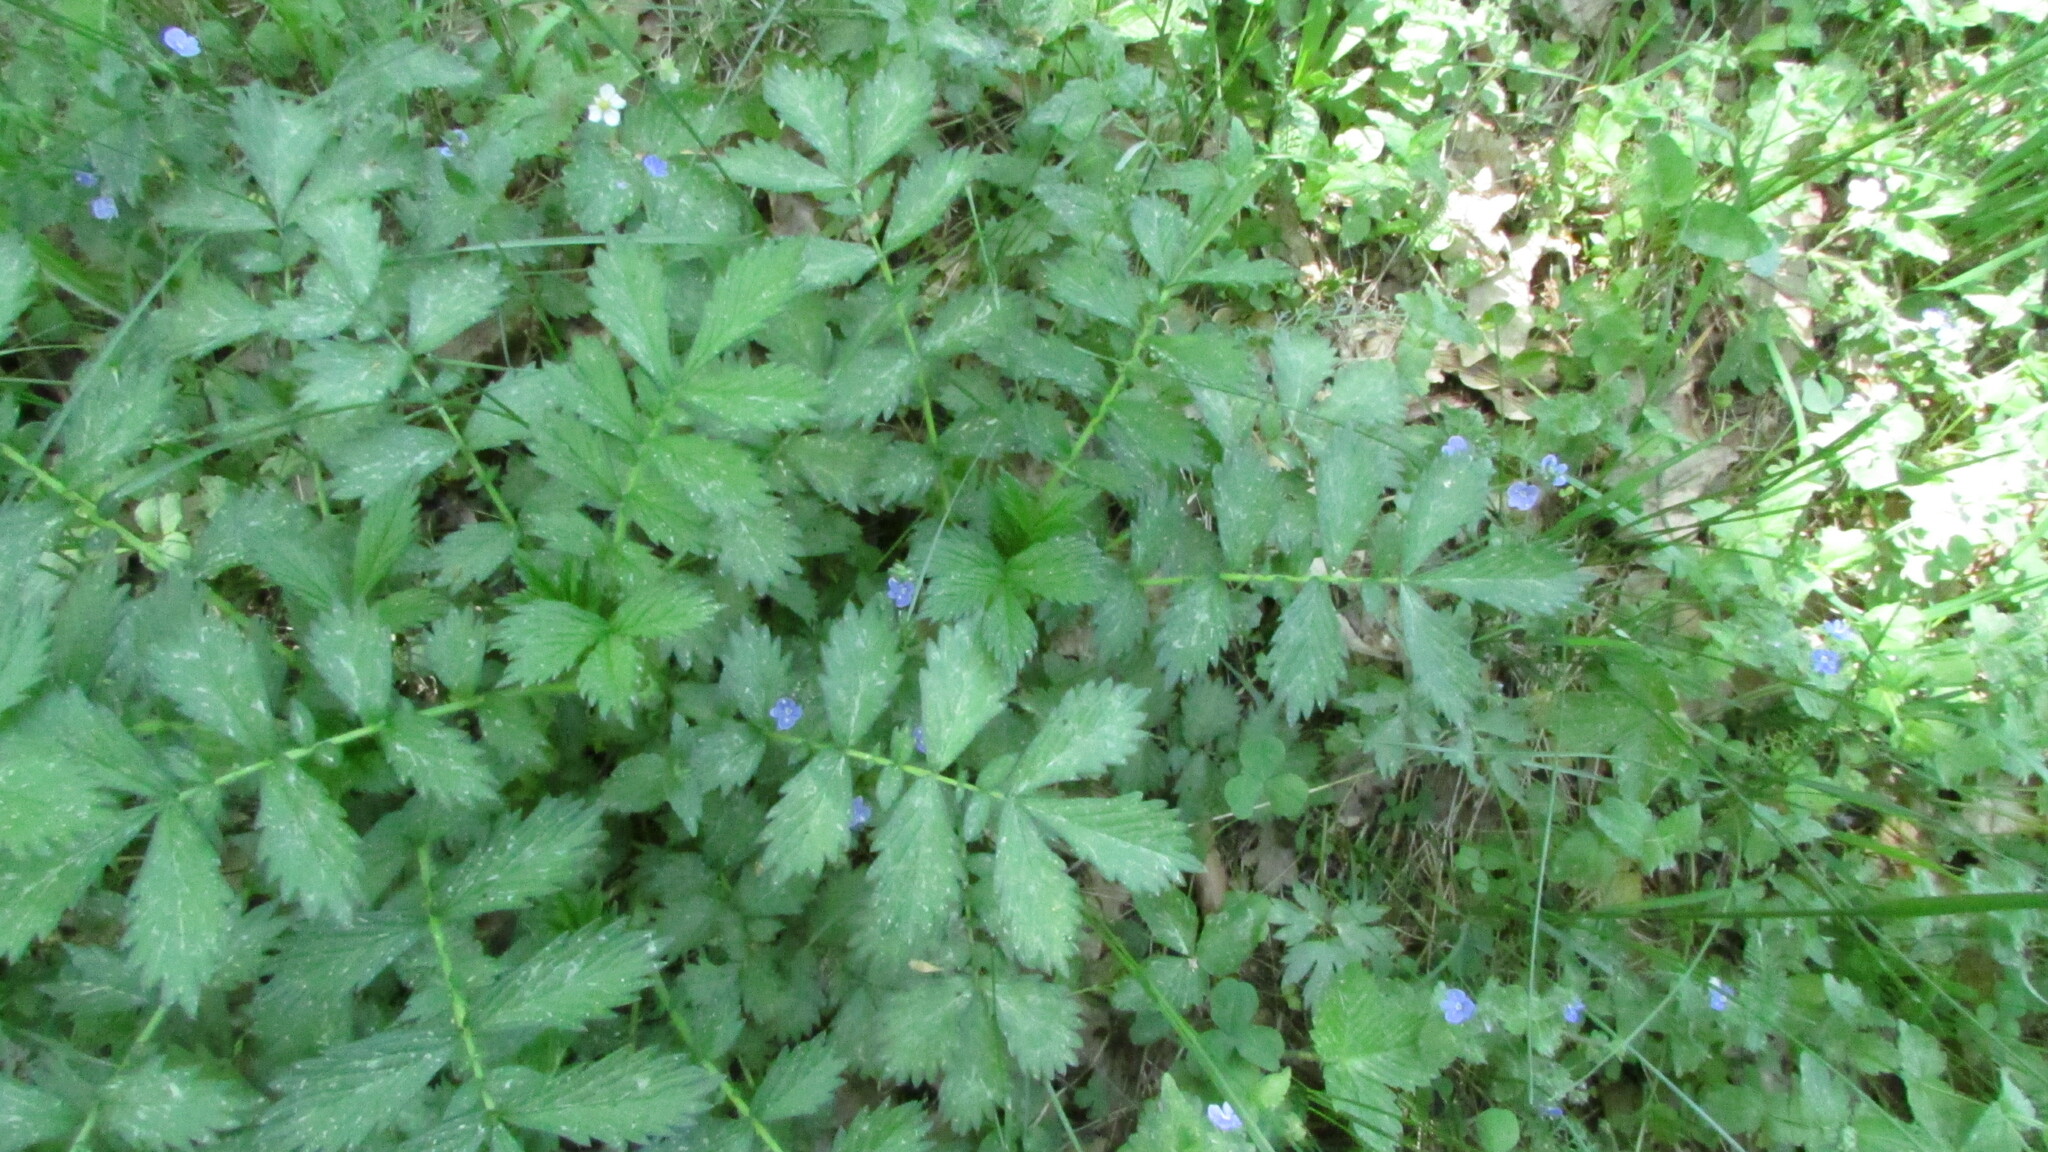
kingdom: Plantae
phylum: Tracheophyta
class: Magnoliopsida
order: Rosales
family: Rosaceae
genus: Agrimonia
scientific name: Agrimonia pilosa
